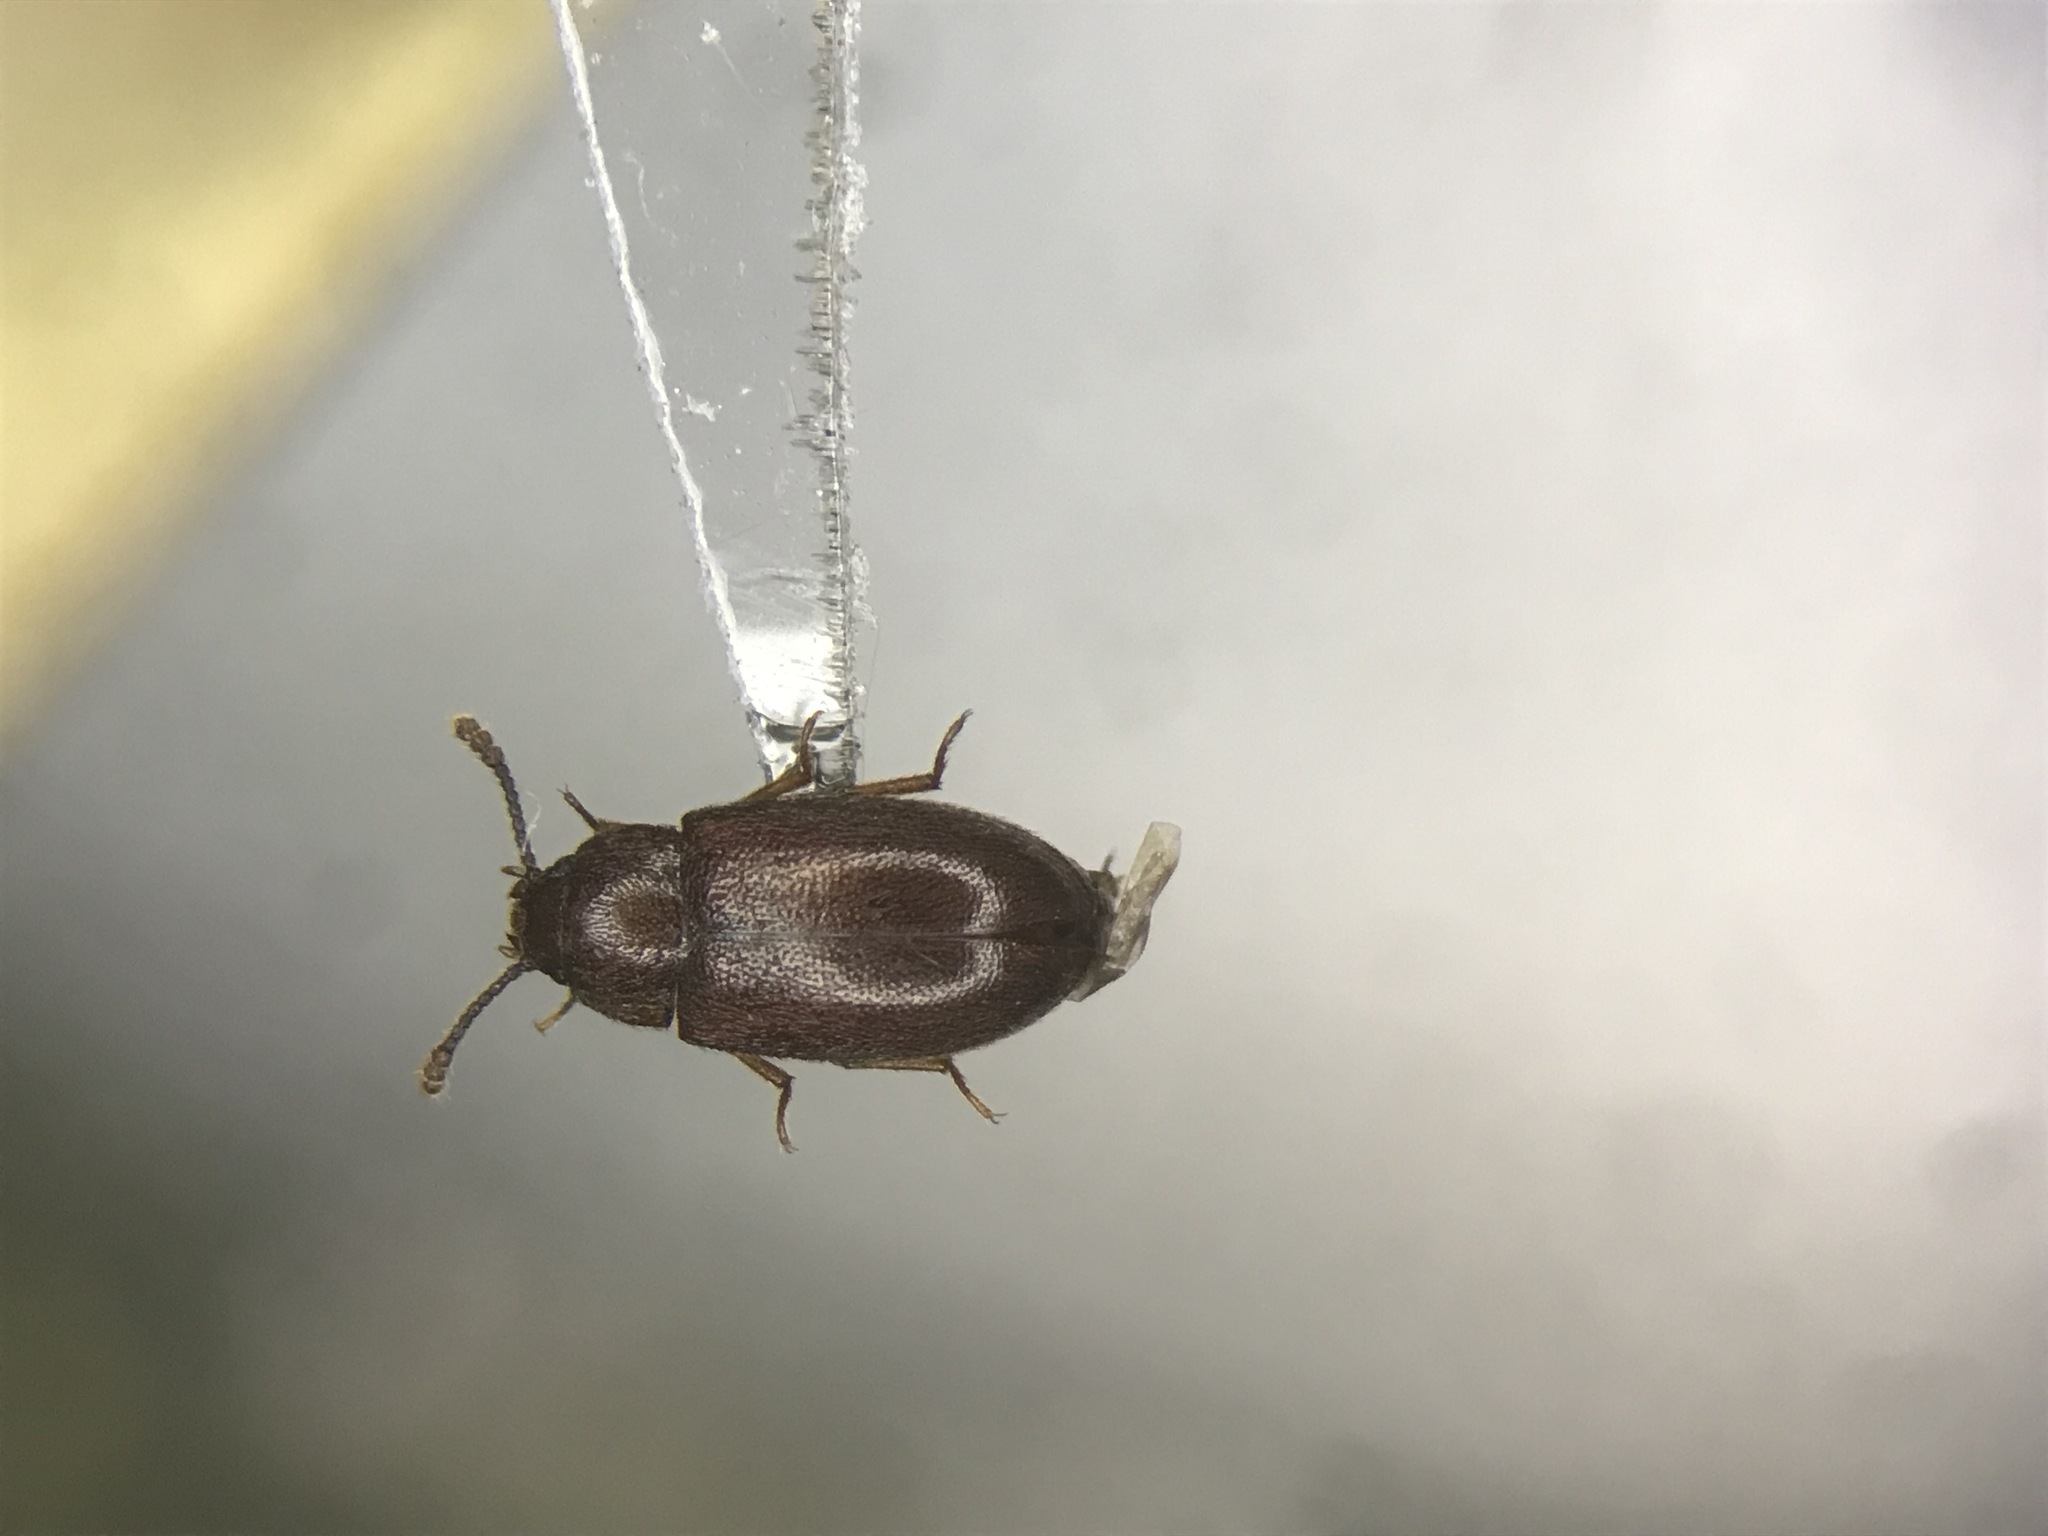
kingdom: Animalia
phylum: Arthropoda
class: Insecta
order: Coleoptera
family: Tetratomidae
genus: Pisenus
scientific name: Pisenus humeralis
